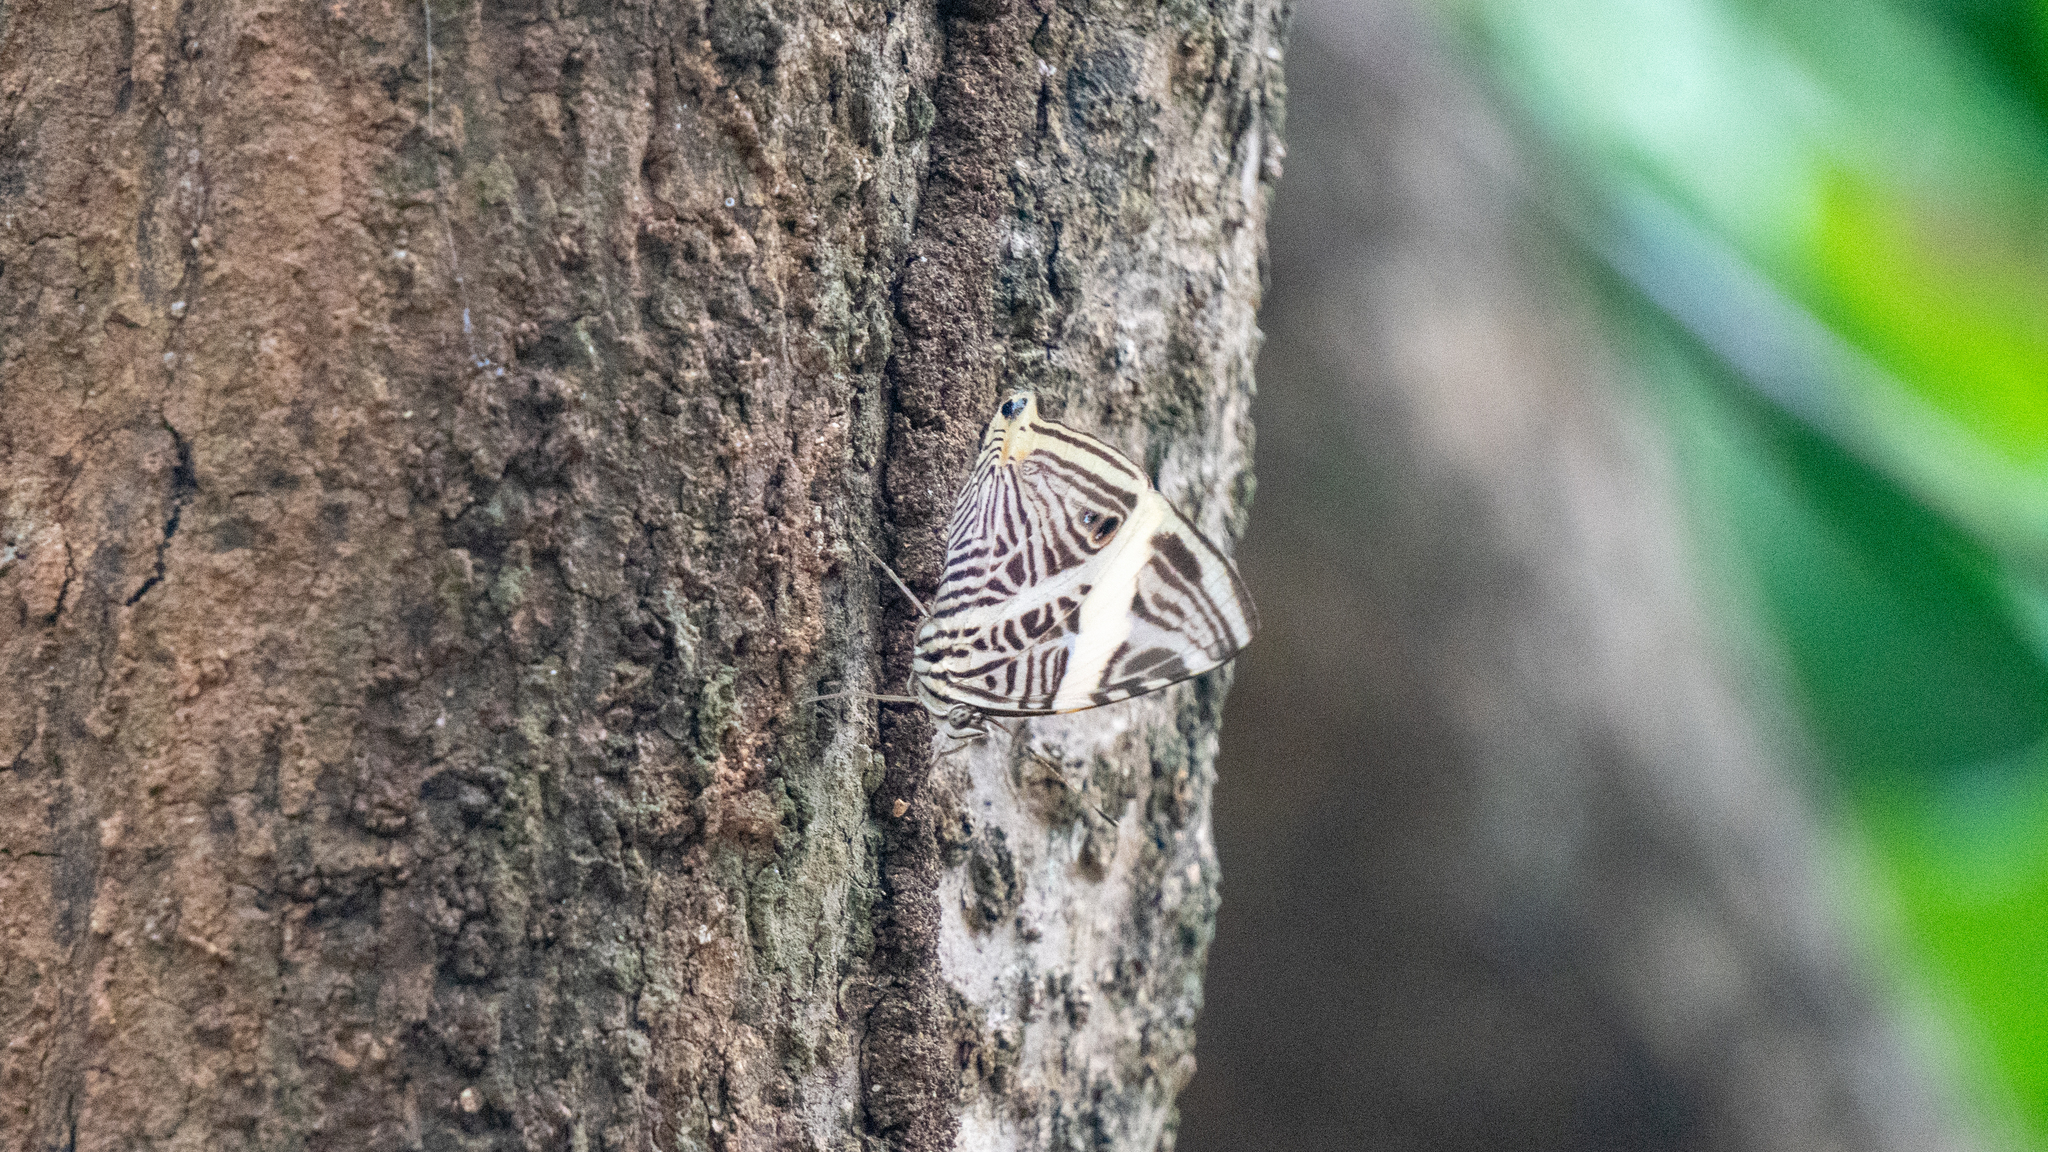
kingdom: Animalia
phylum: Arthropoda
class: Insecta
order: Lepidoptera
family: Nymphalidae
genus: Colobura
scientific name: Colobura dirce
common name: Dirce beauty
